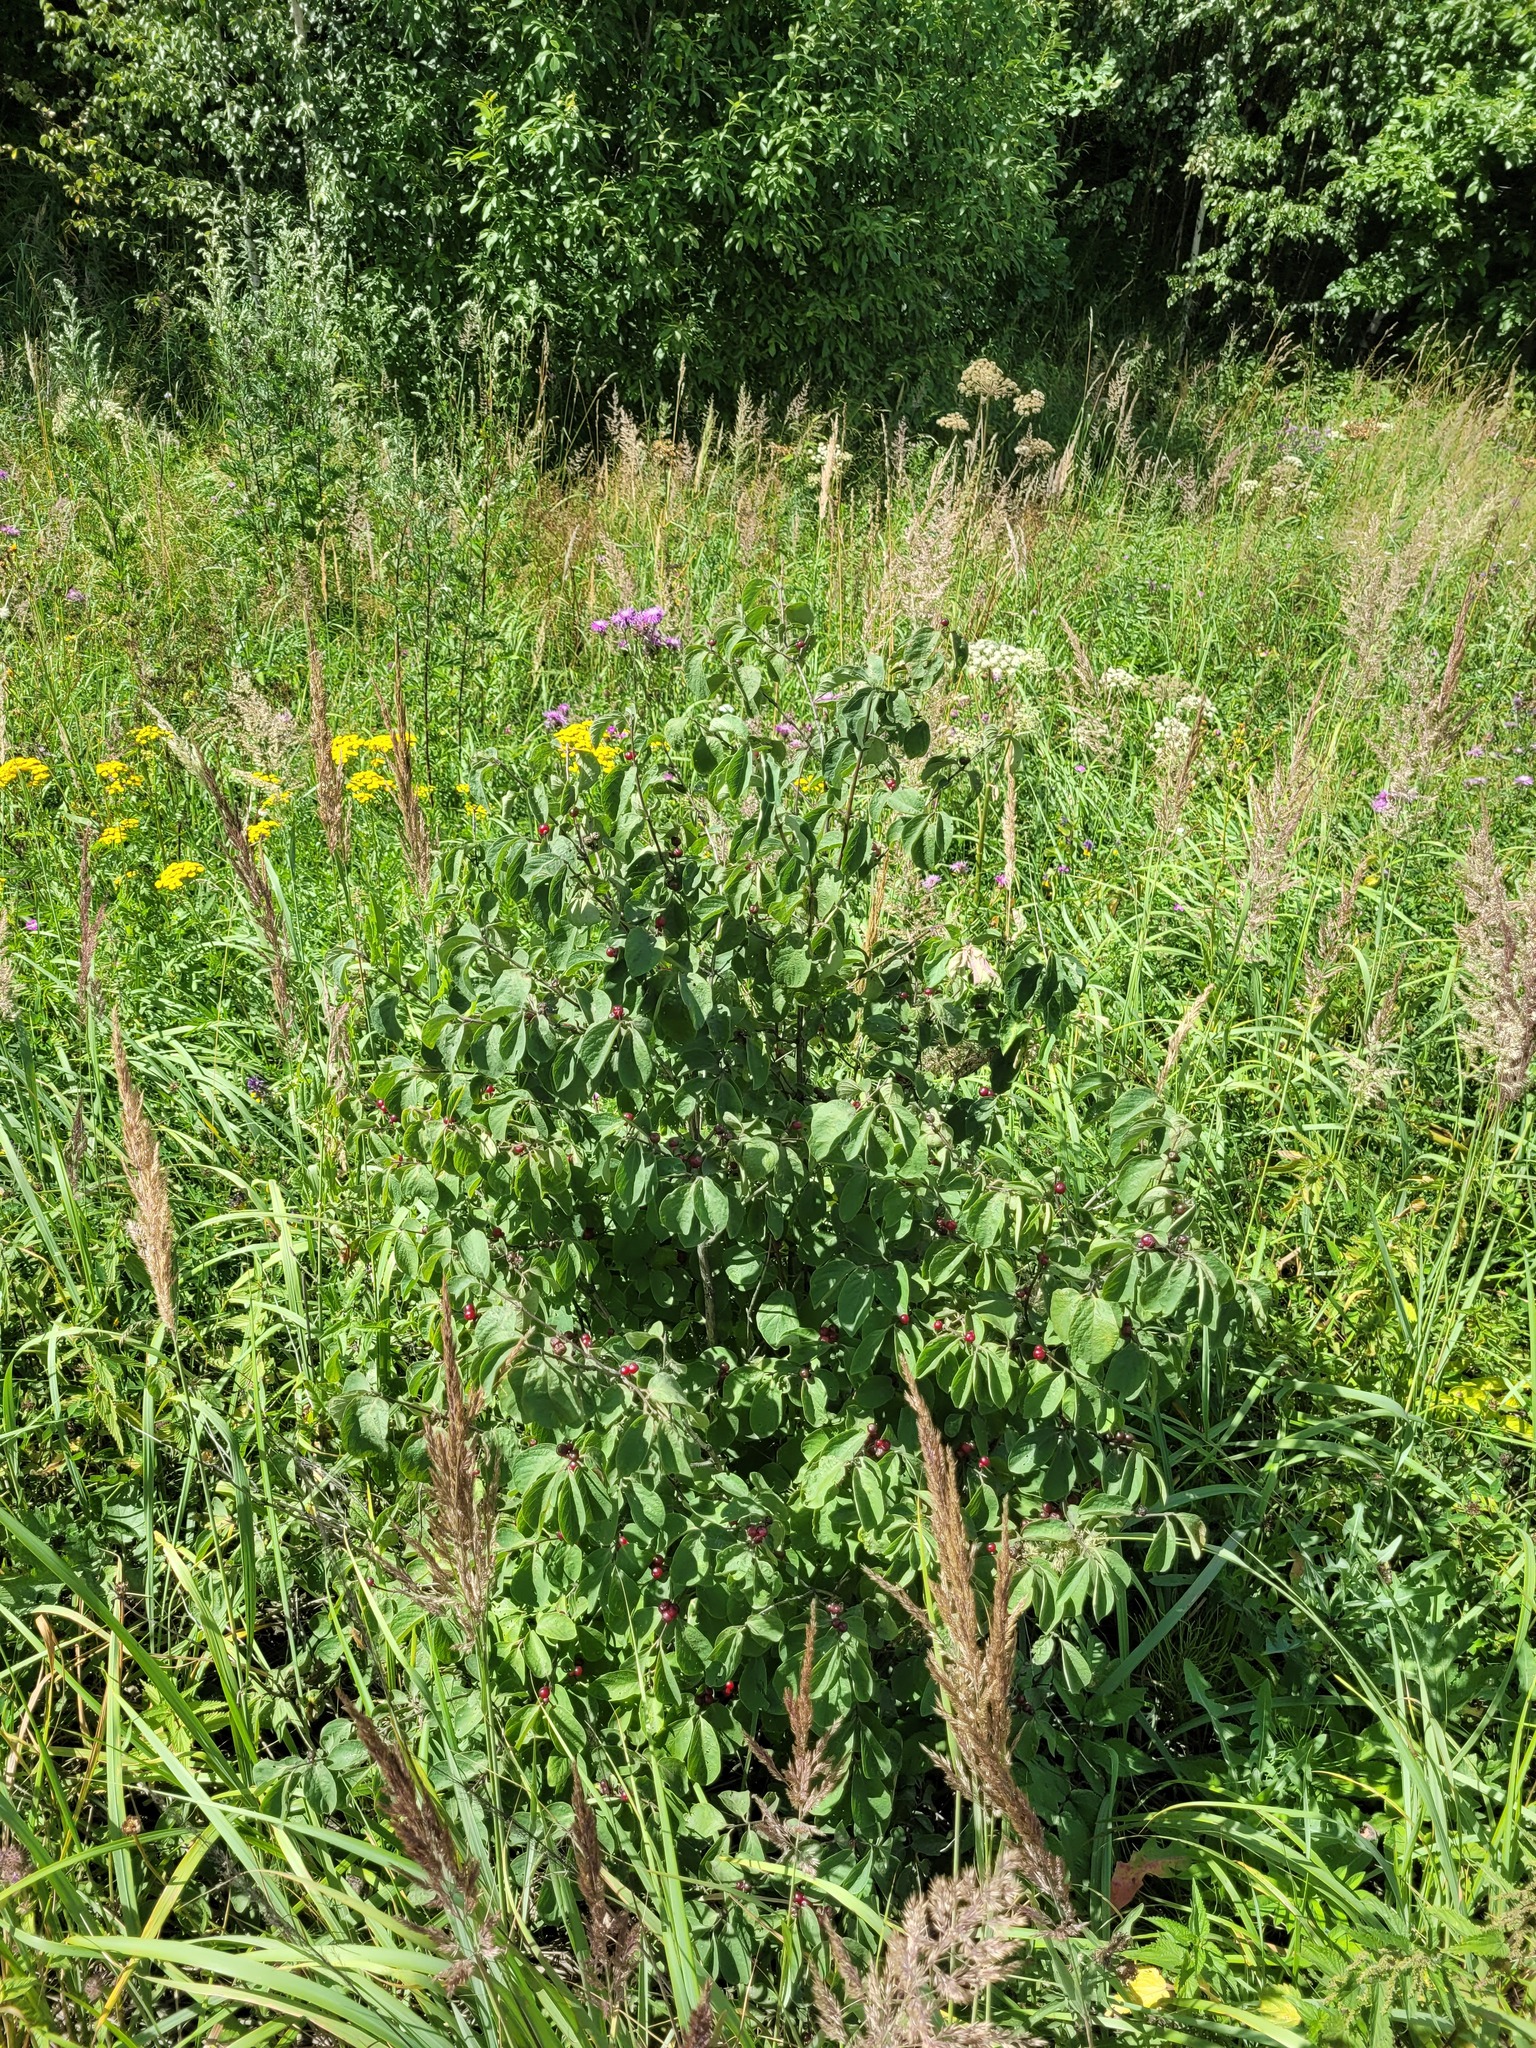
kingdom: Plantae
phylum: Tracheophyta
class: Magnoliopsida
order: Dipsacales
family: Caprifoliaceae
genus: Lonicera
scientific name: Lonicera xylosteum
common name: Fly honeysuckle
